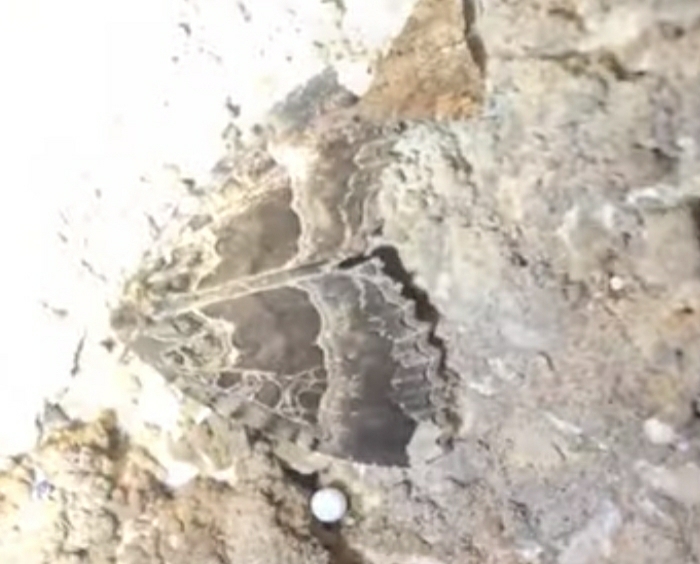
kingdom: Animalia
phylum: Arthropoda
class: Insecta
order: Lepidoptera
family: Noctuidae
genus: Mormo
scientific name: Mormo maura
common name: Old lady
